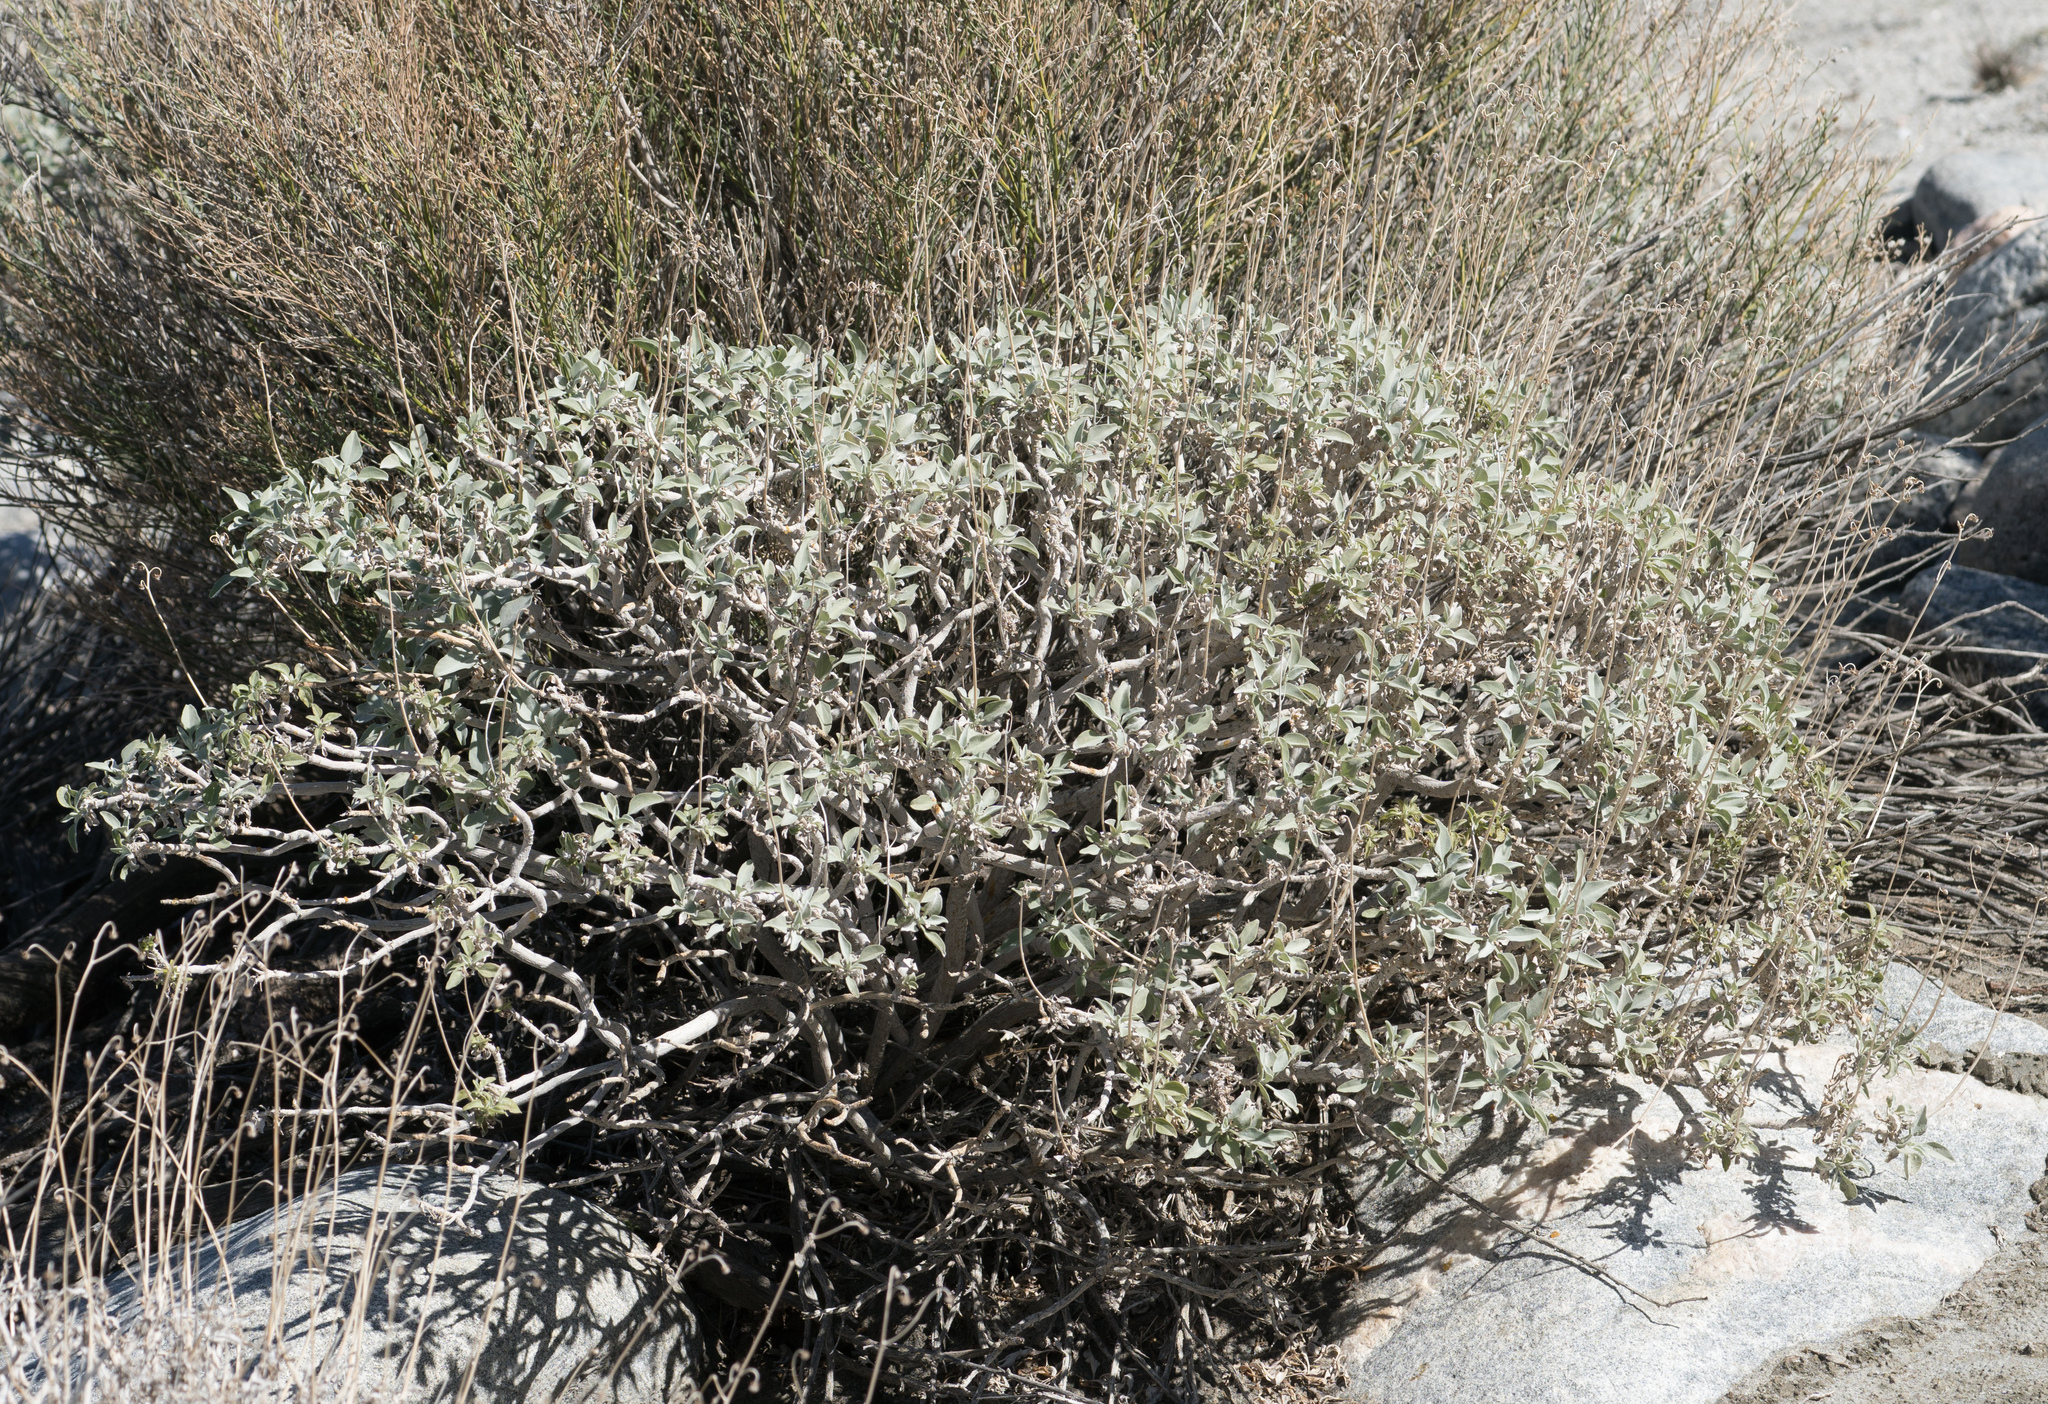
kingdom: Plantae
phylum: Tracheophyta
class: Magnoliopsida
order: Asterales
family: Asteraceae
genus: Encelia
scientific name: Encelia farinosa
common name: Brittlebush
